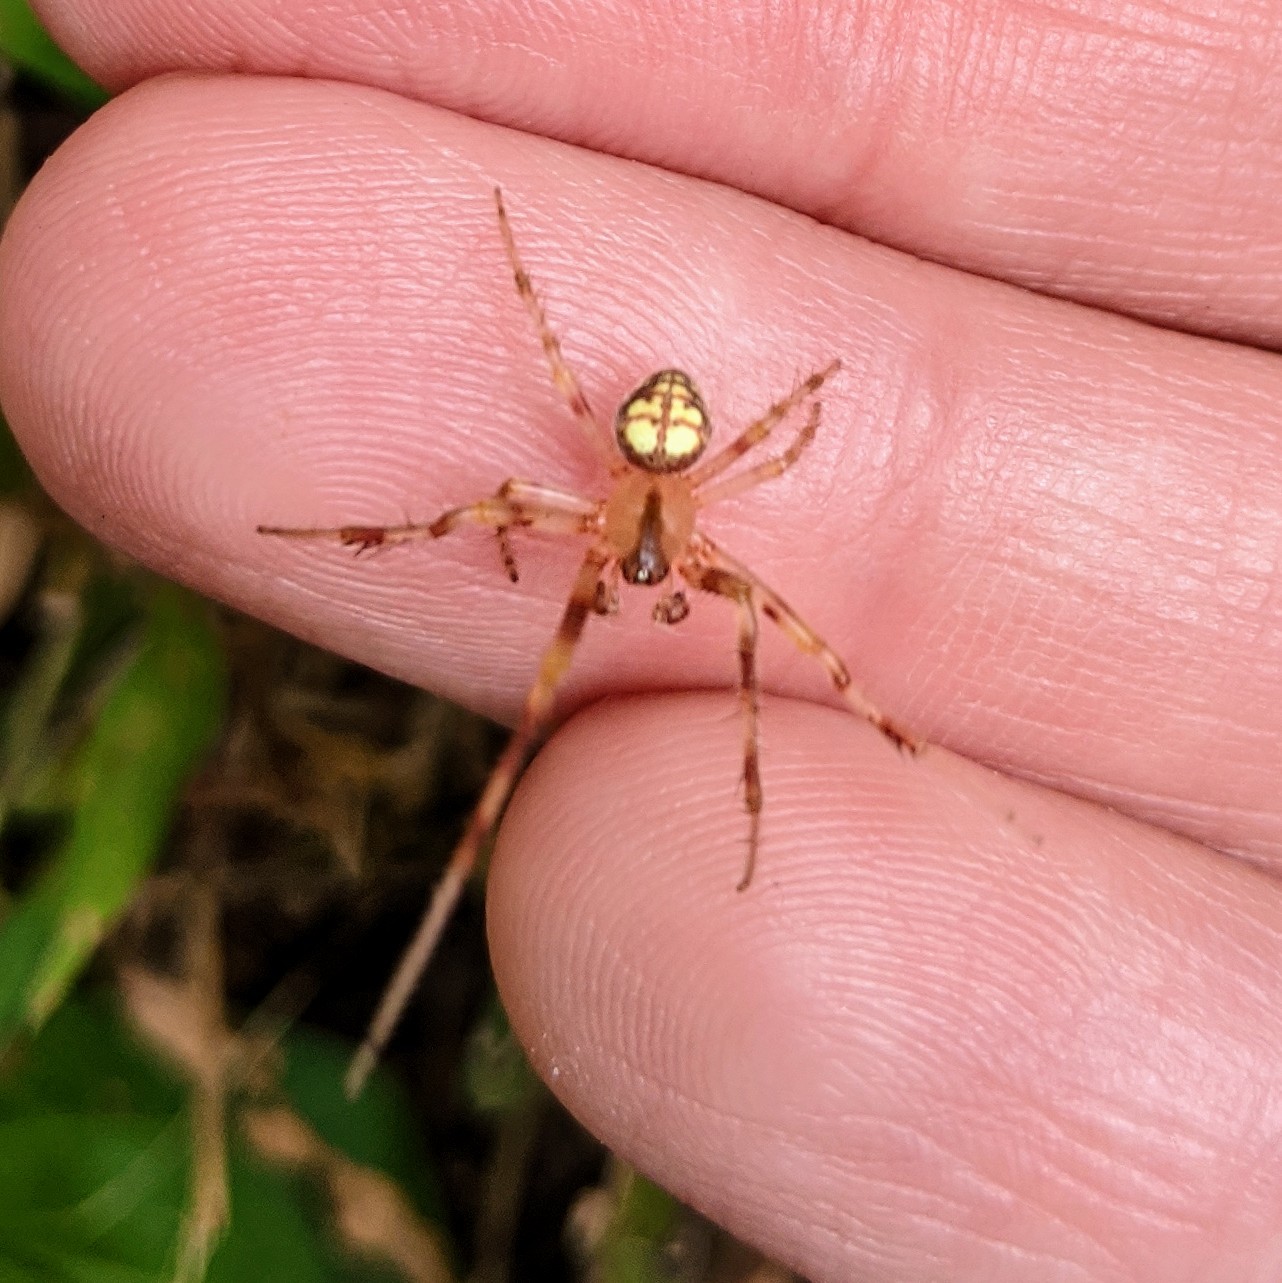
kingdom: Animalia
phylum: Arthropoda
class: Arachnida
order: Araneae
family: Araneidae
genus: Araneus
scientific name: Araneus thaddeus
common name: Lattice orbweaver
